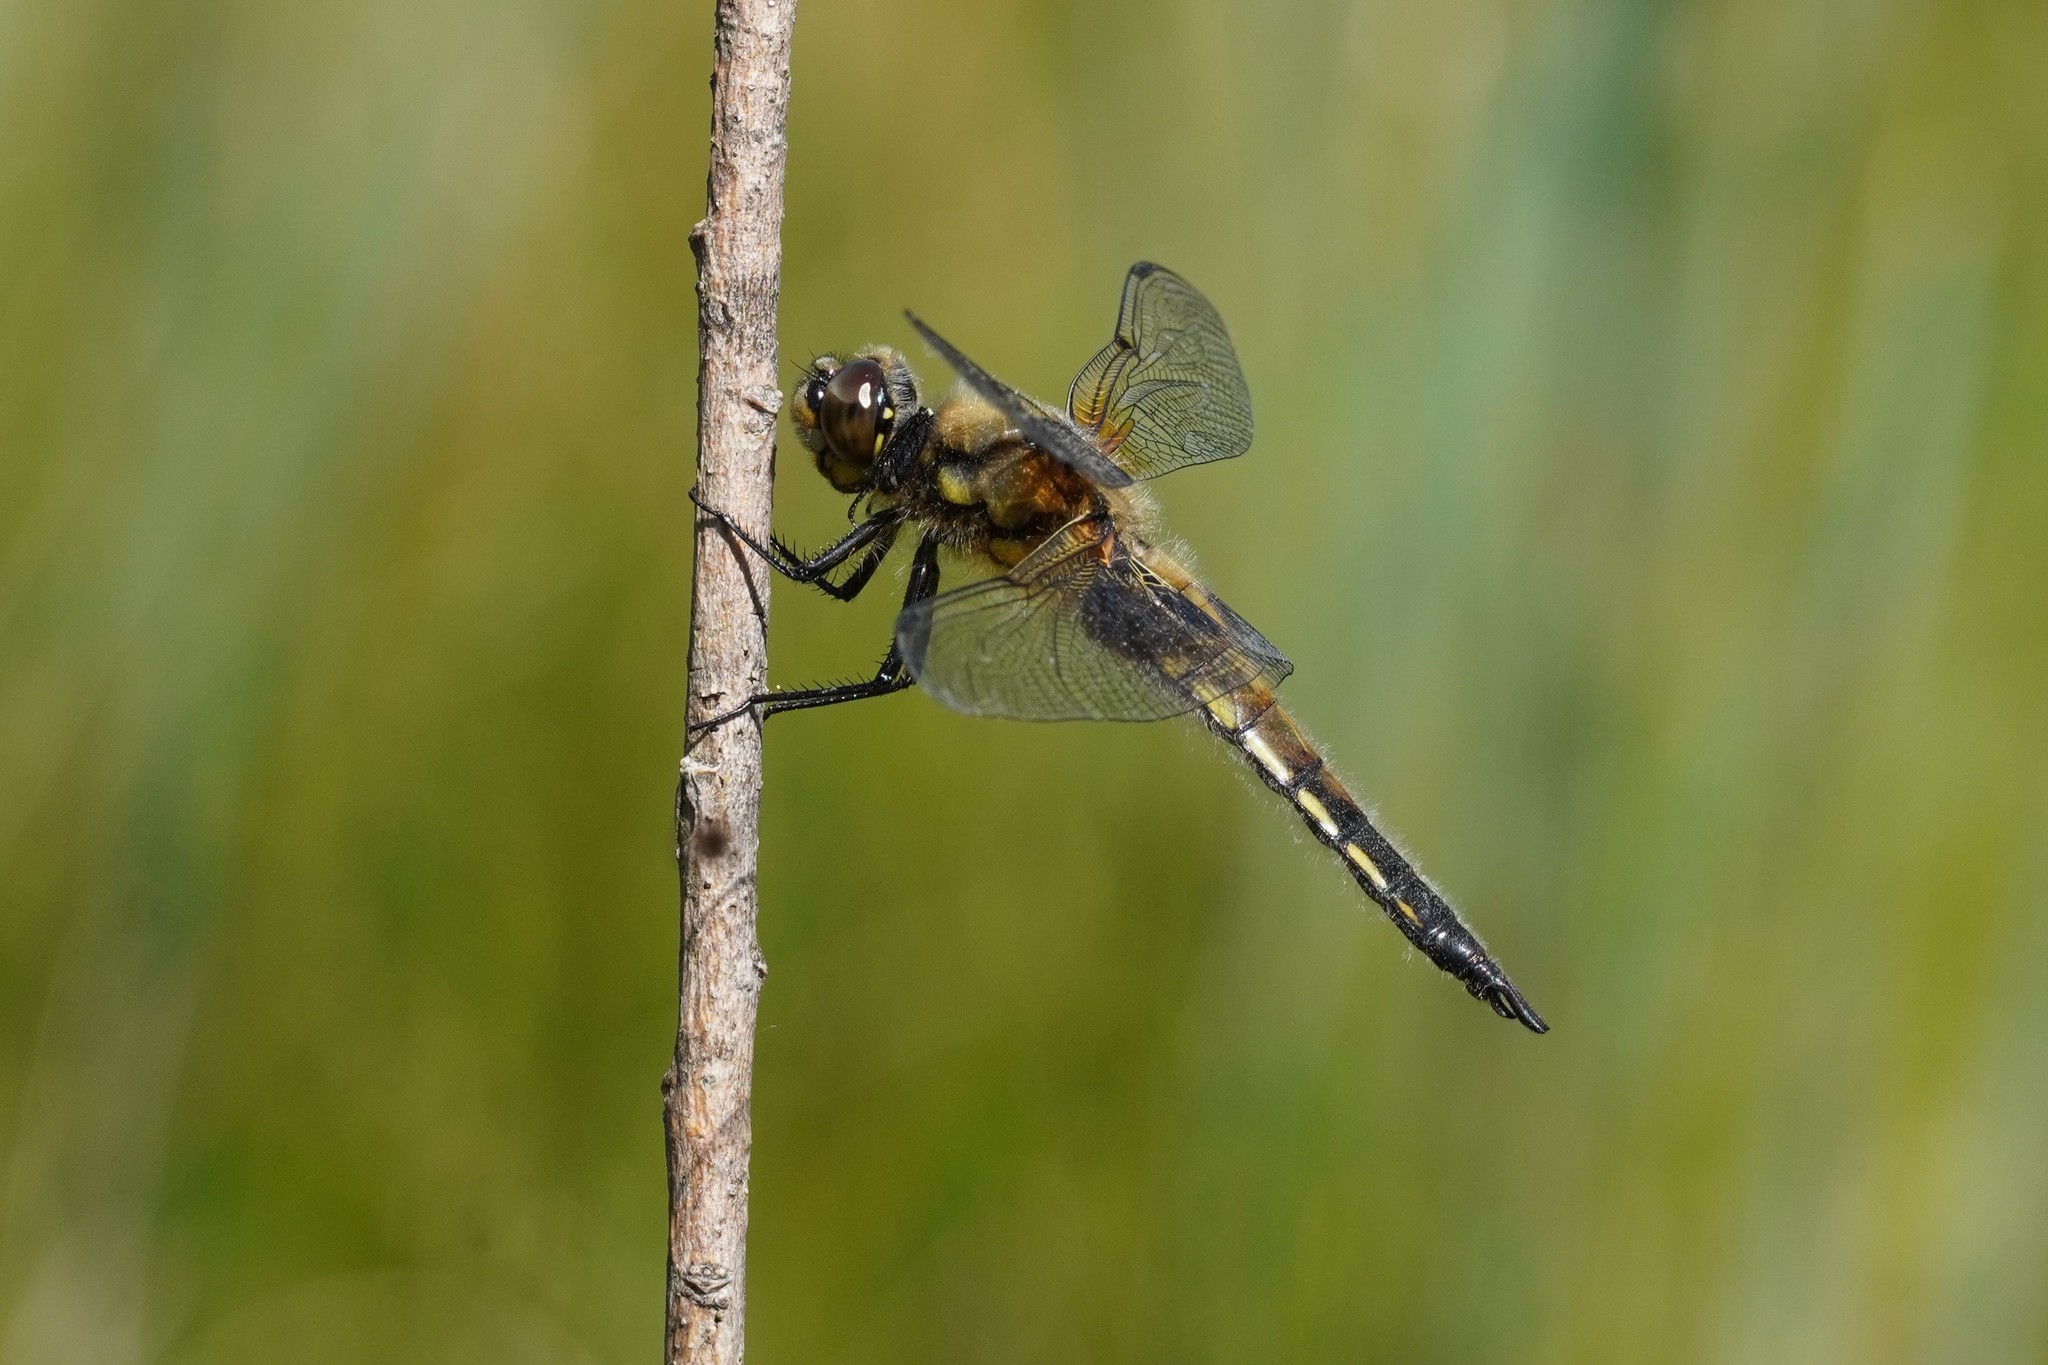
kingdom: Animalia
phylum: Arthropoda
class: Insecta
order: Odonata
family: Libellulidae
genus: Libellula
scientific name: Libellula quadrimaculata
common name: Four-spotted chaser
